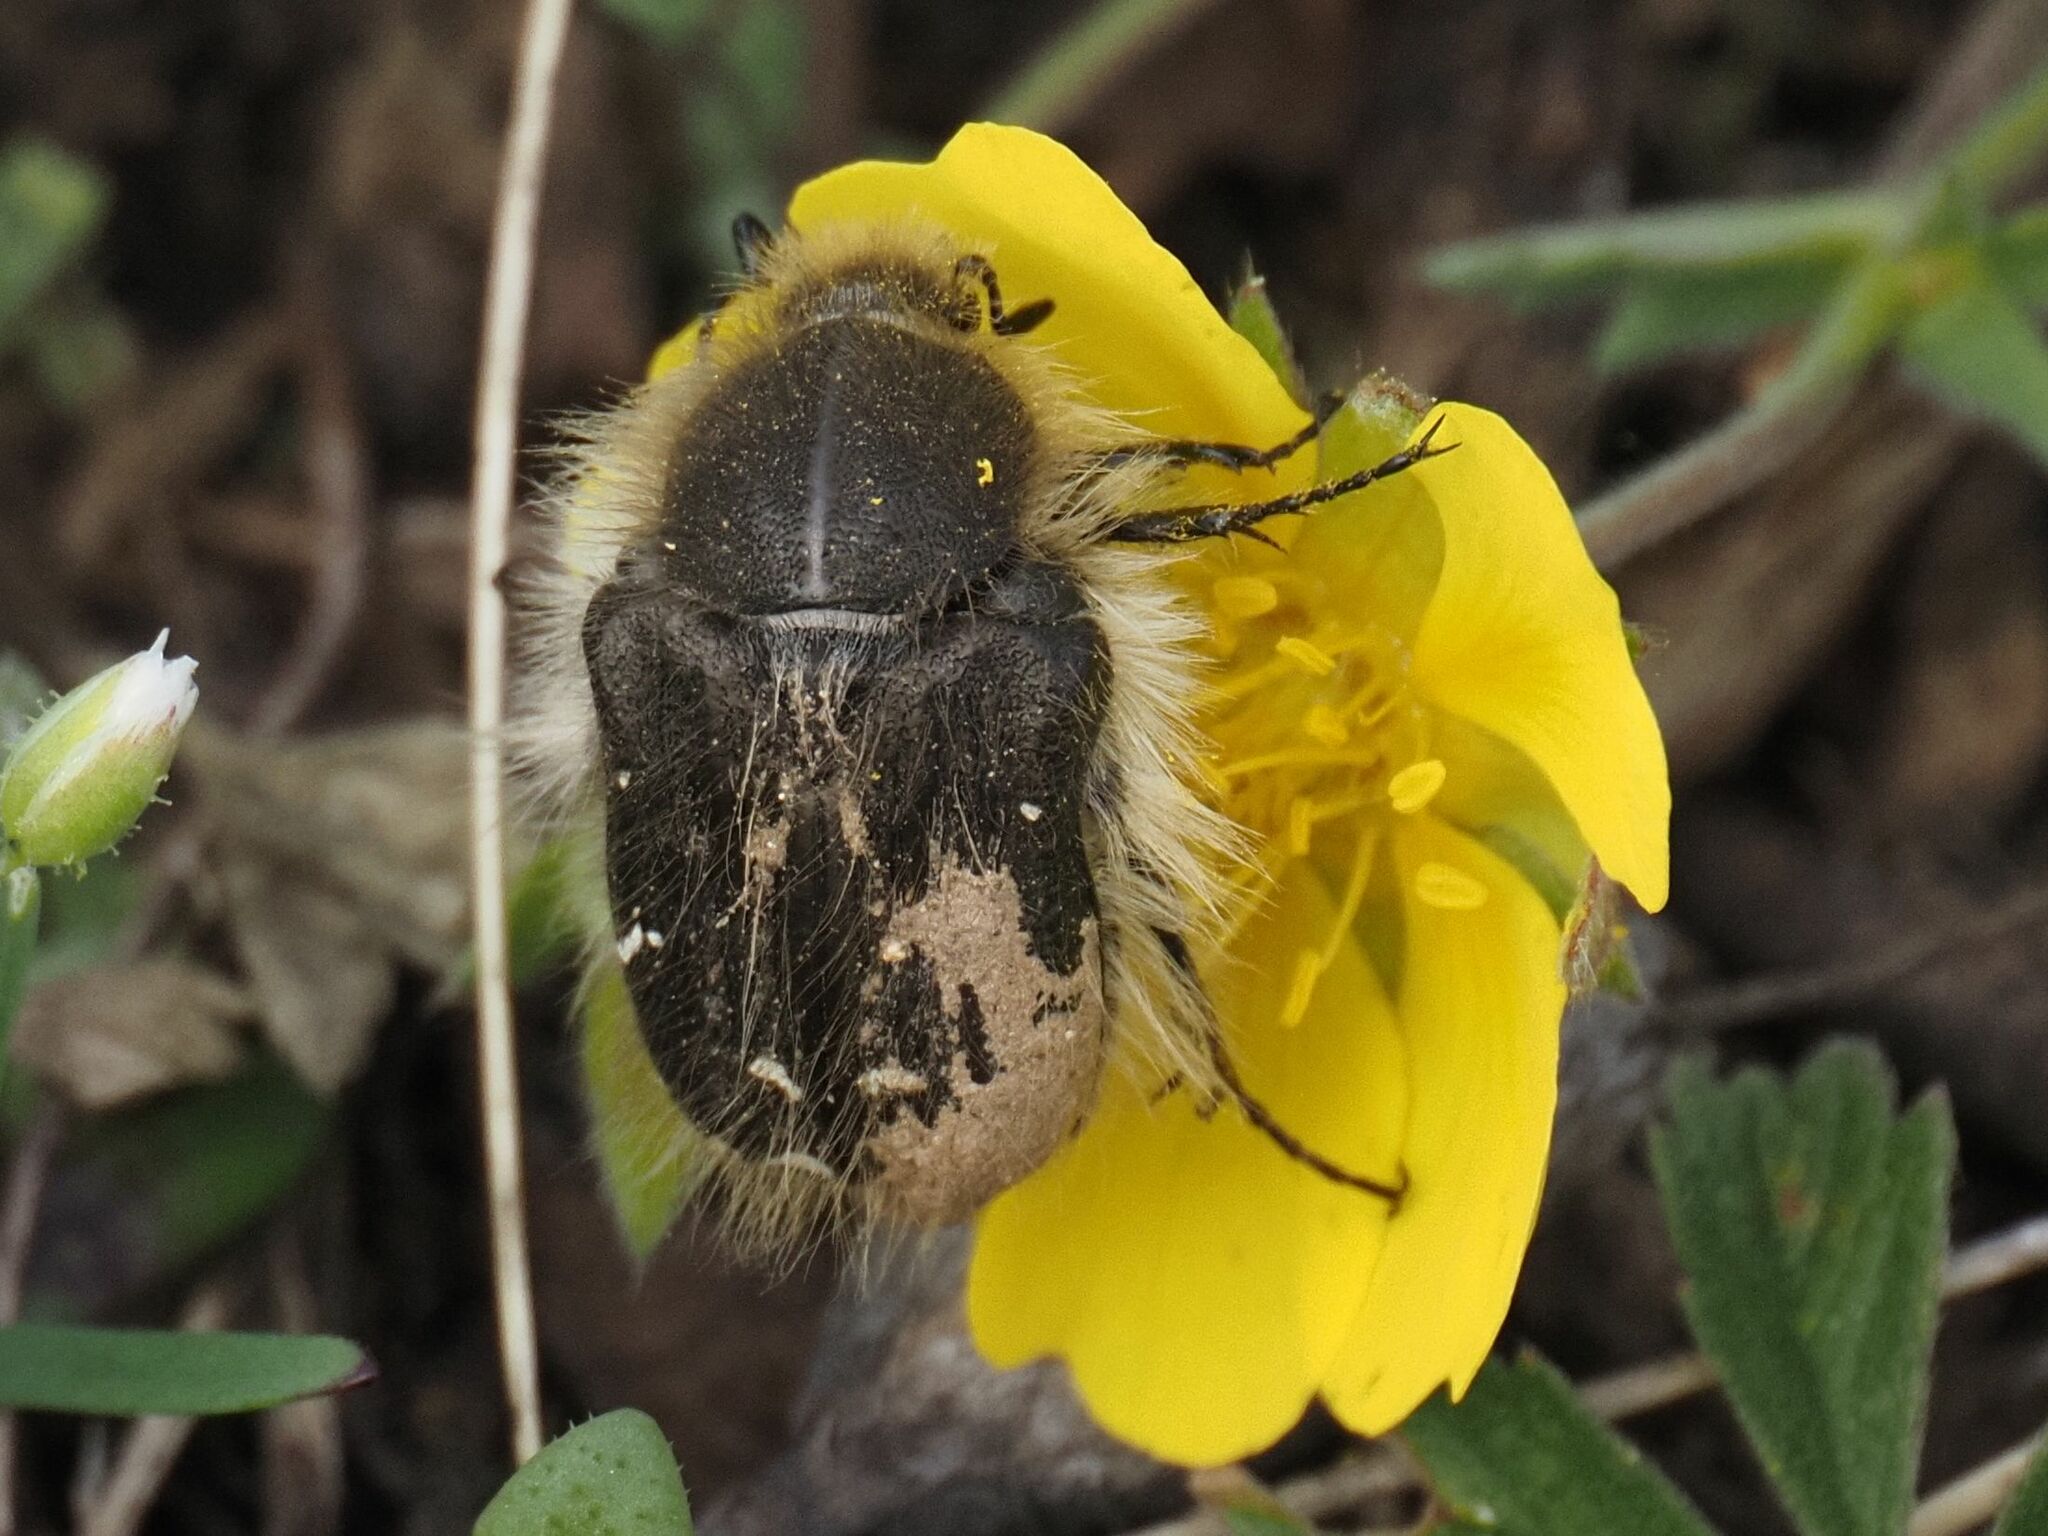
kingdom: Animalia
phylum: Arthropoda
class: Insecta
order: Coleoptera
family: Scarabaeidae
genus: Tropinota
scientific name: Tropinota hirta
